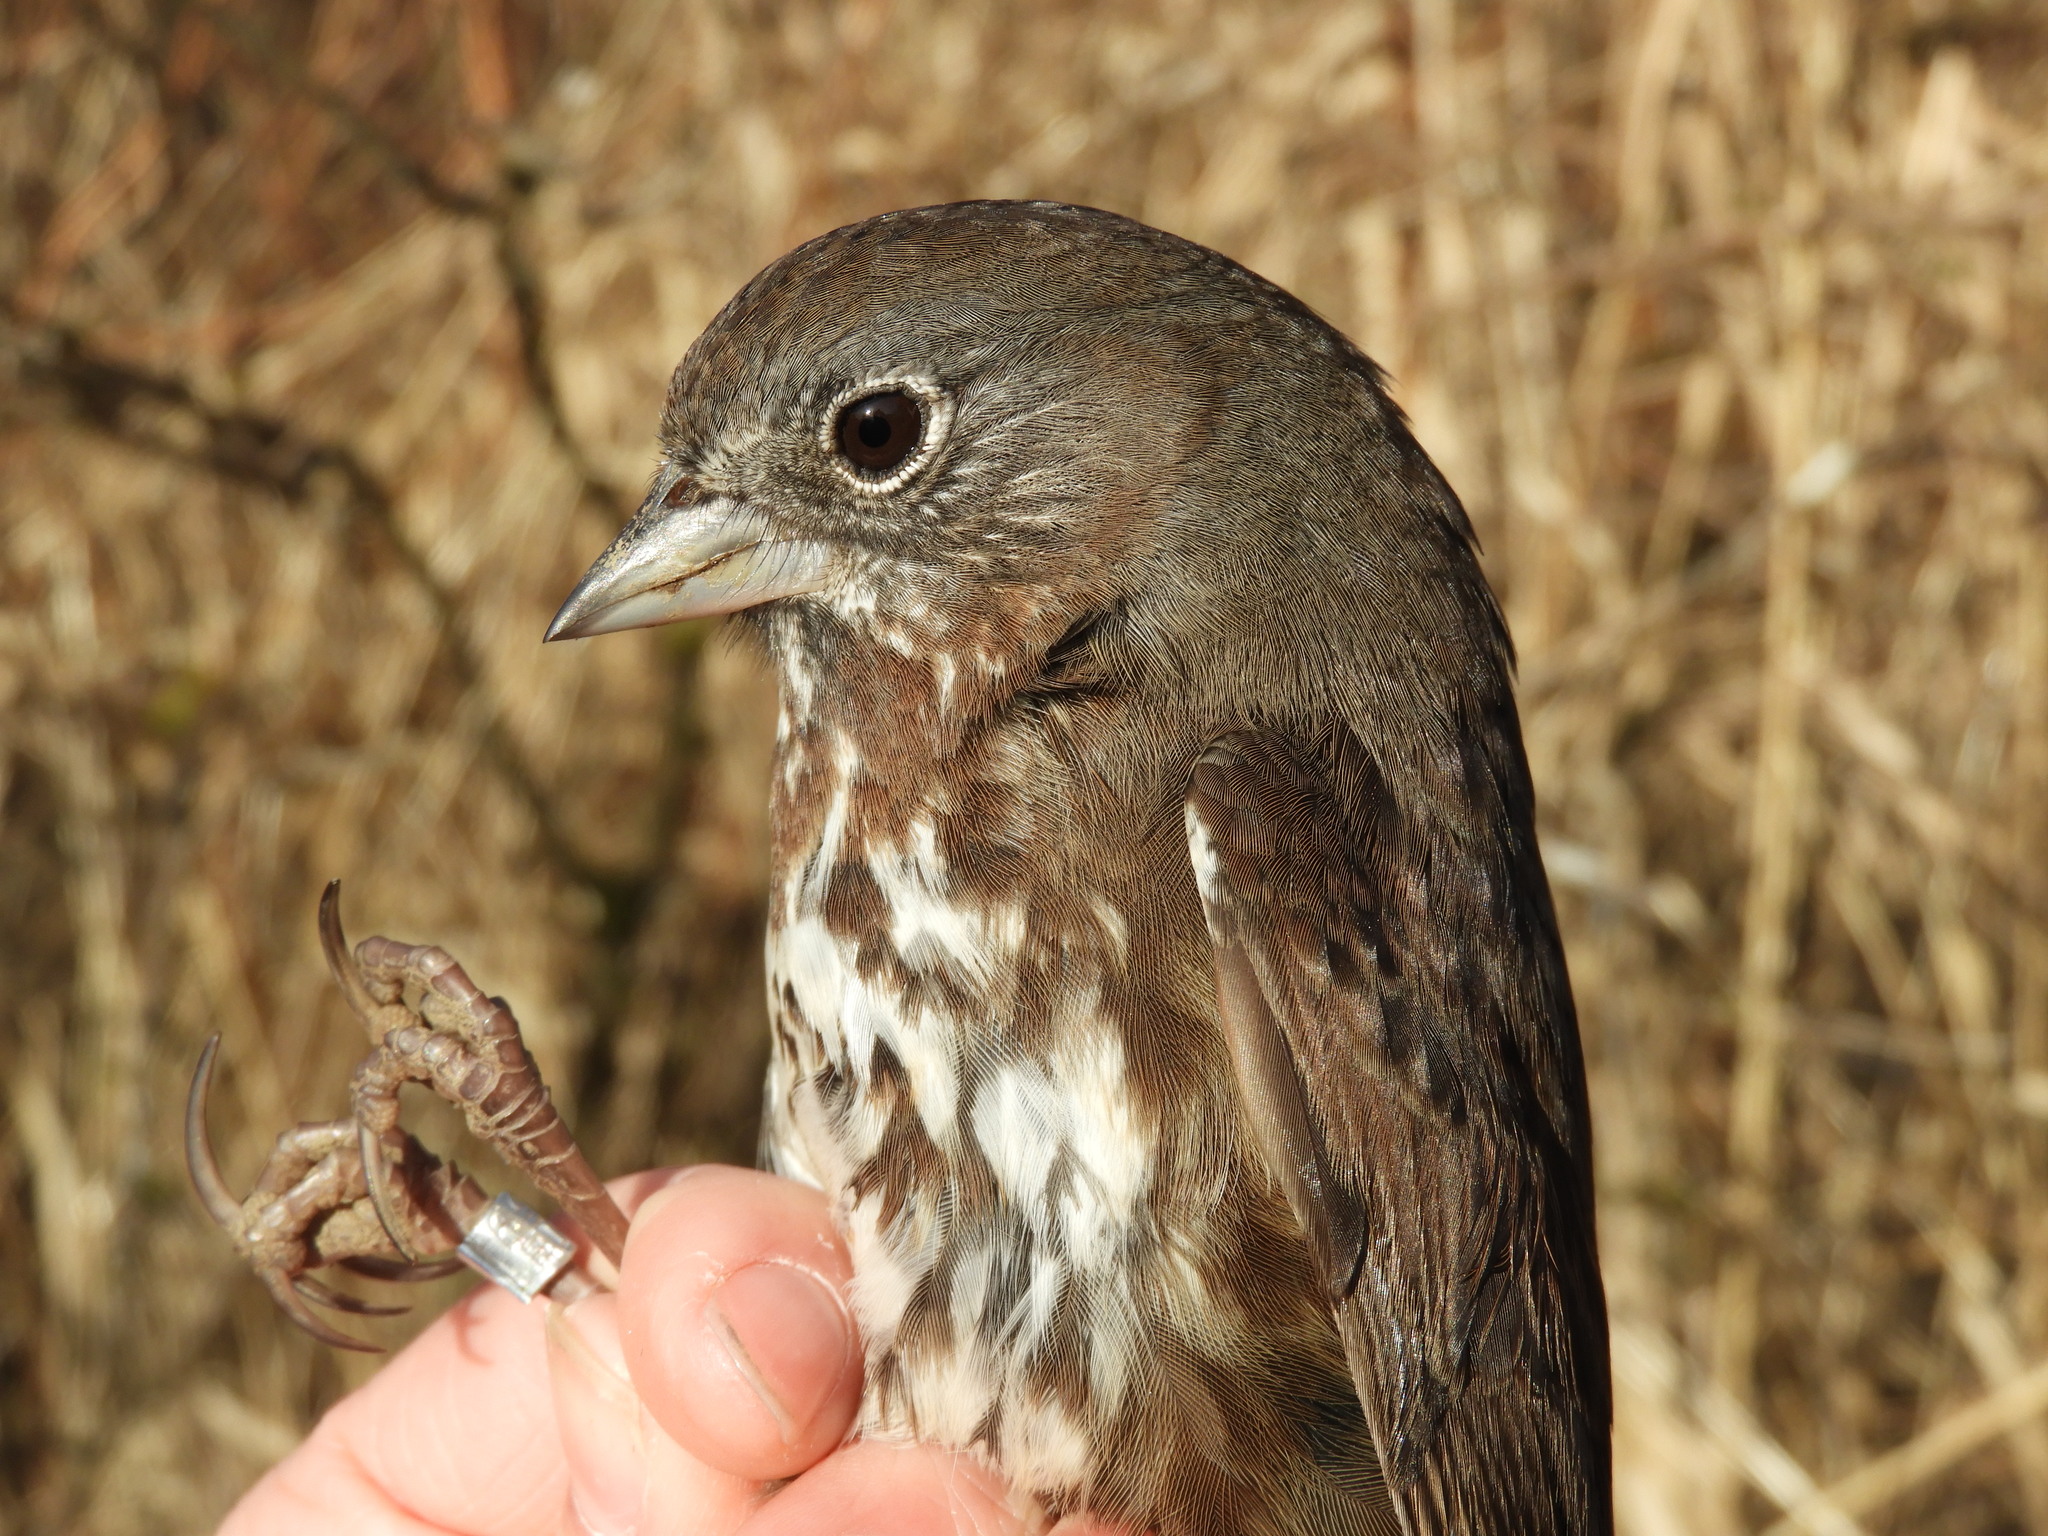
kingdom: Animalia
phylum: Chordata
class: Aves
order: Passeriformes
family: Passerellidae
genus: Passerella
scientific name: Passerella iliaca
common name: Fox sparrow
